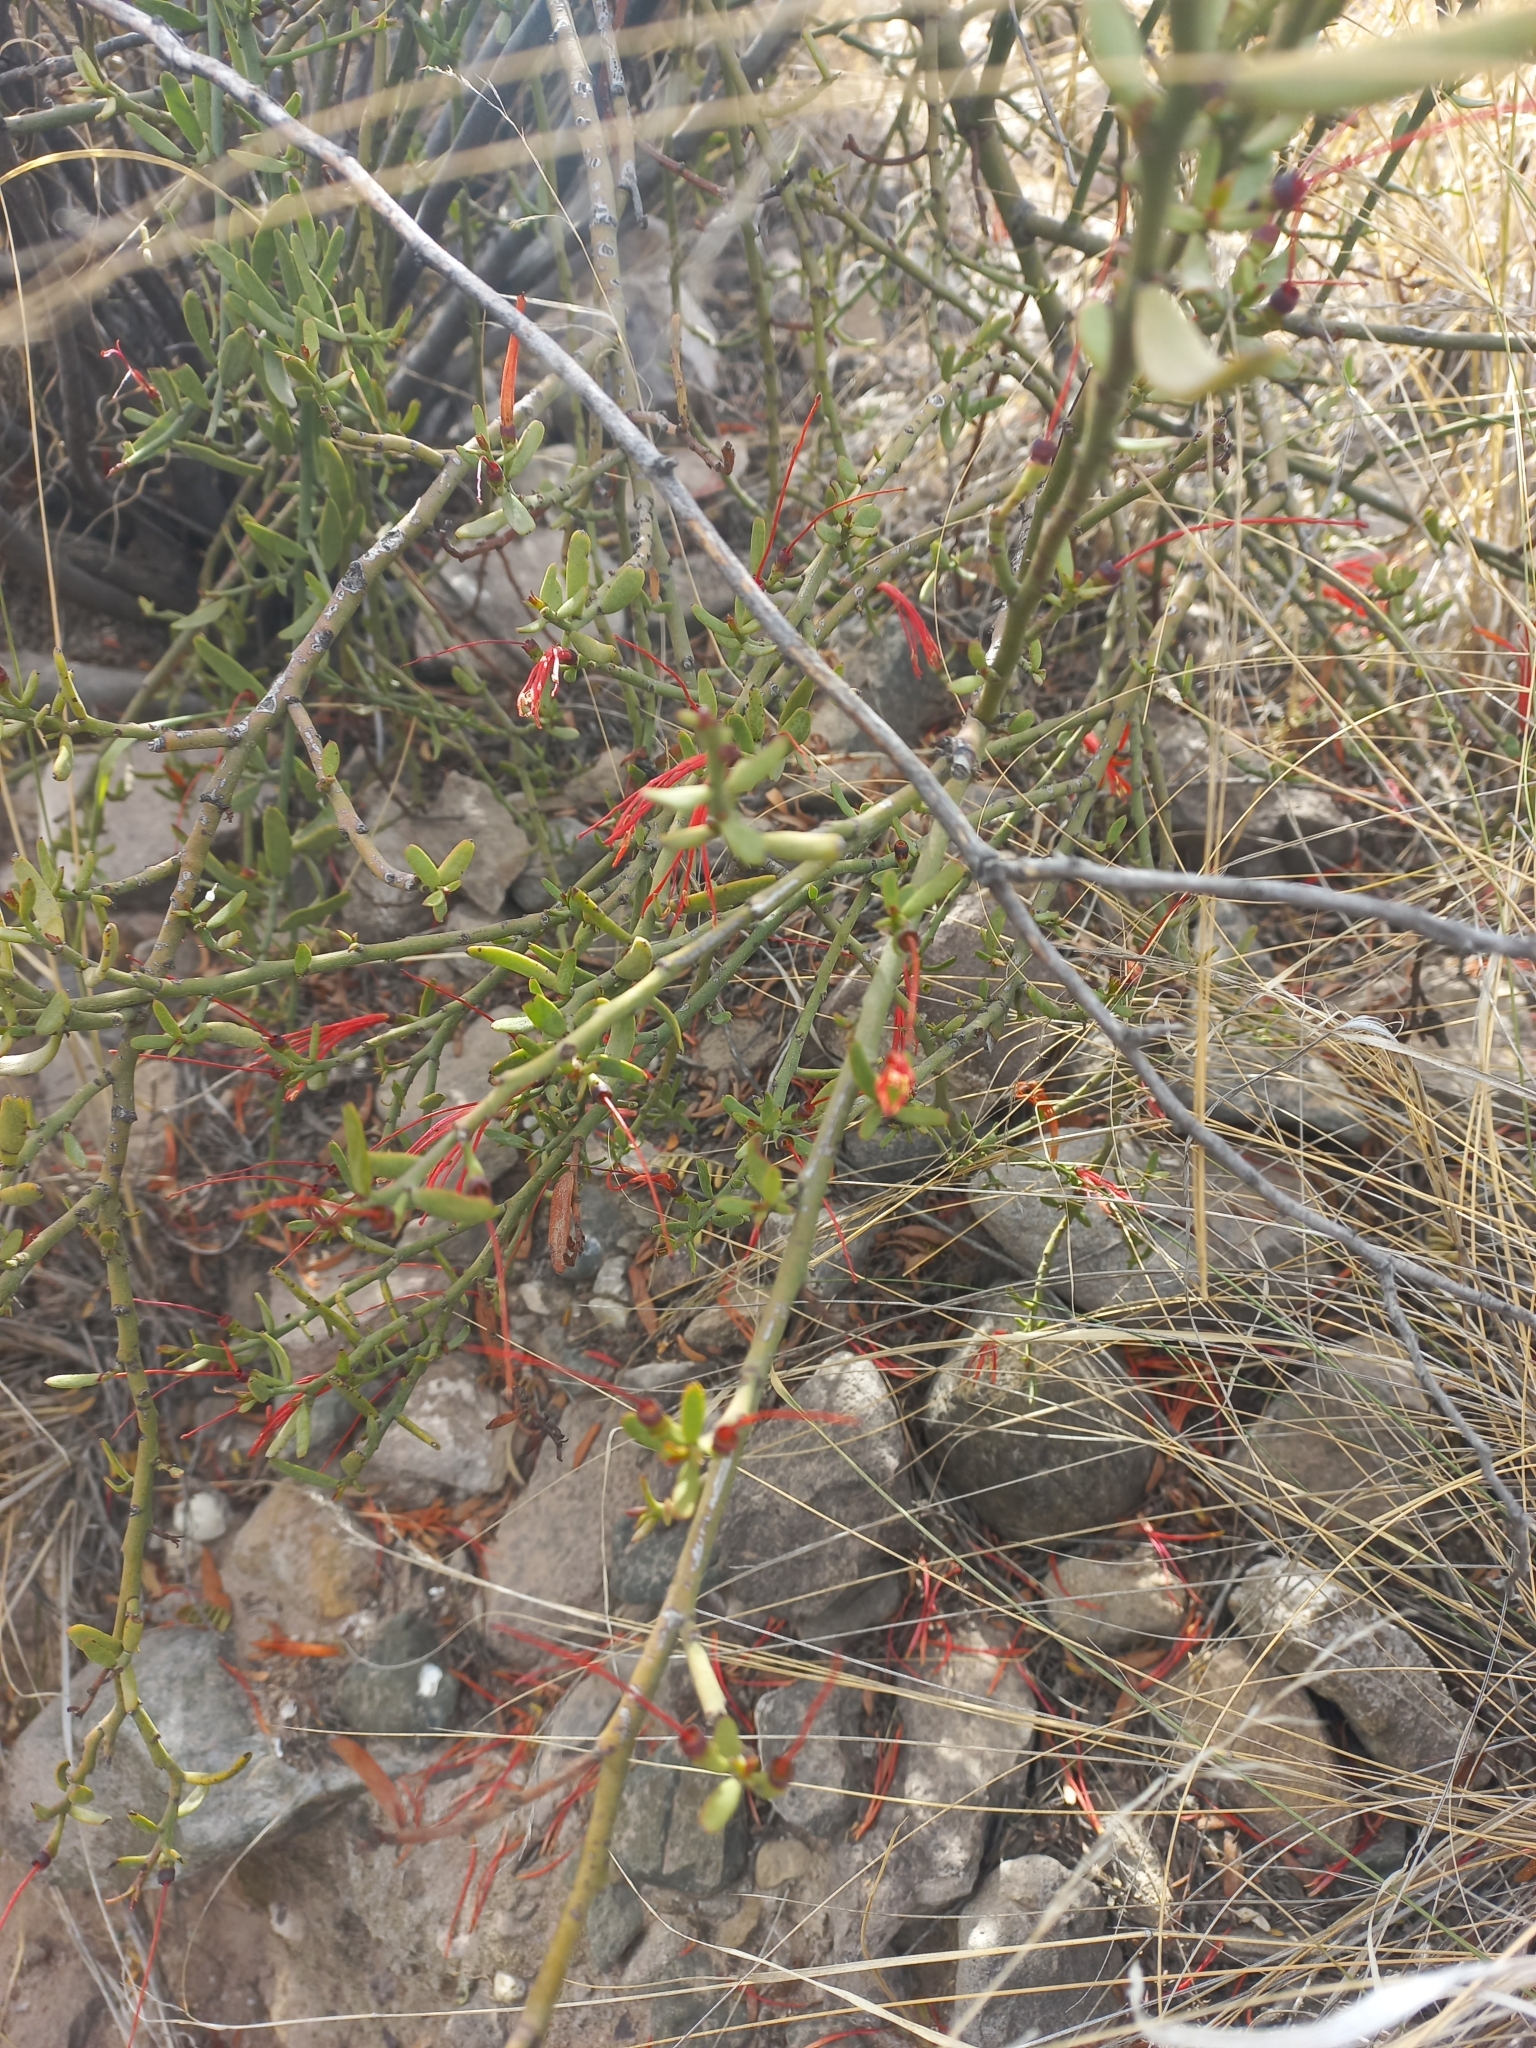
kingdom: Plantae
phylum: Tracheophyta
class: Magnoliopsida
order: Santalales
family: Loranthaceae
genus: Ligaria
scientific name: Ligaria cuneifolia
